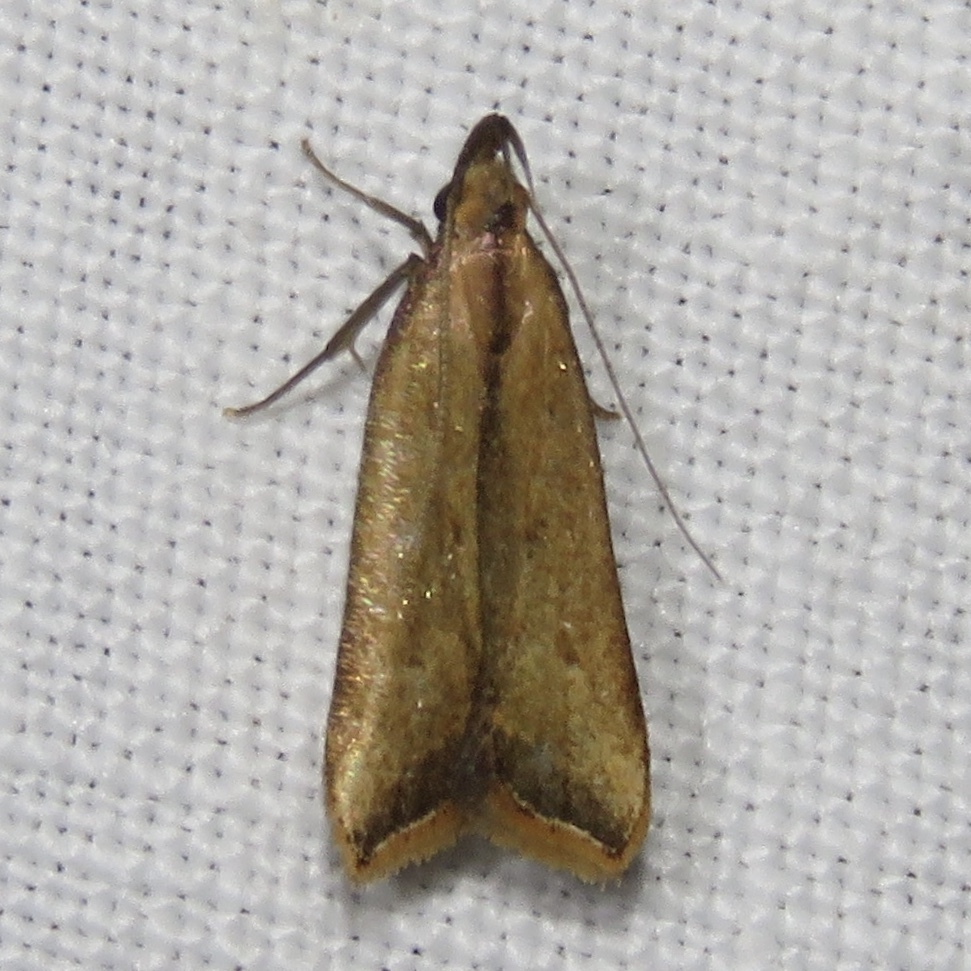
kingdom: Animalia
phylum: Arthropoda
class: Insecta
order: Lepidoptera
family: Gelechiidae
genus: Dichomeris
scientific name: Dichomeris heriguronis
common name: Black-edged dichomeris moth
